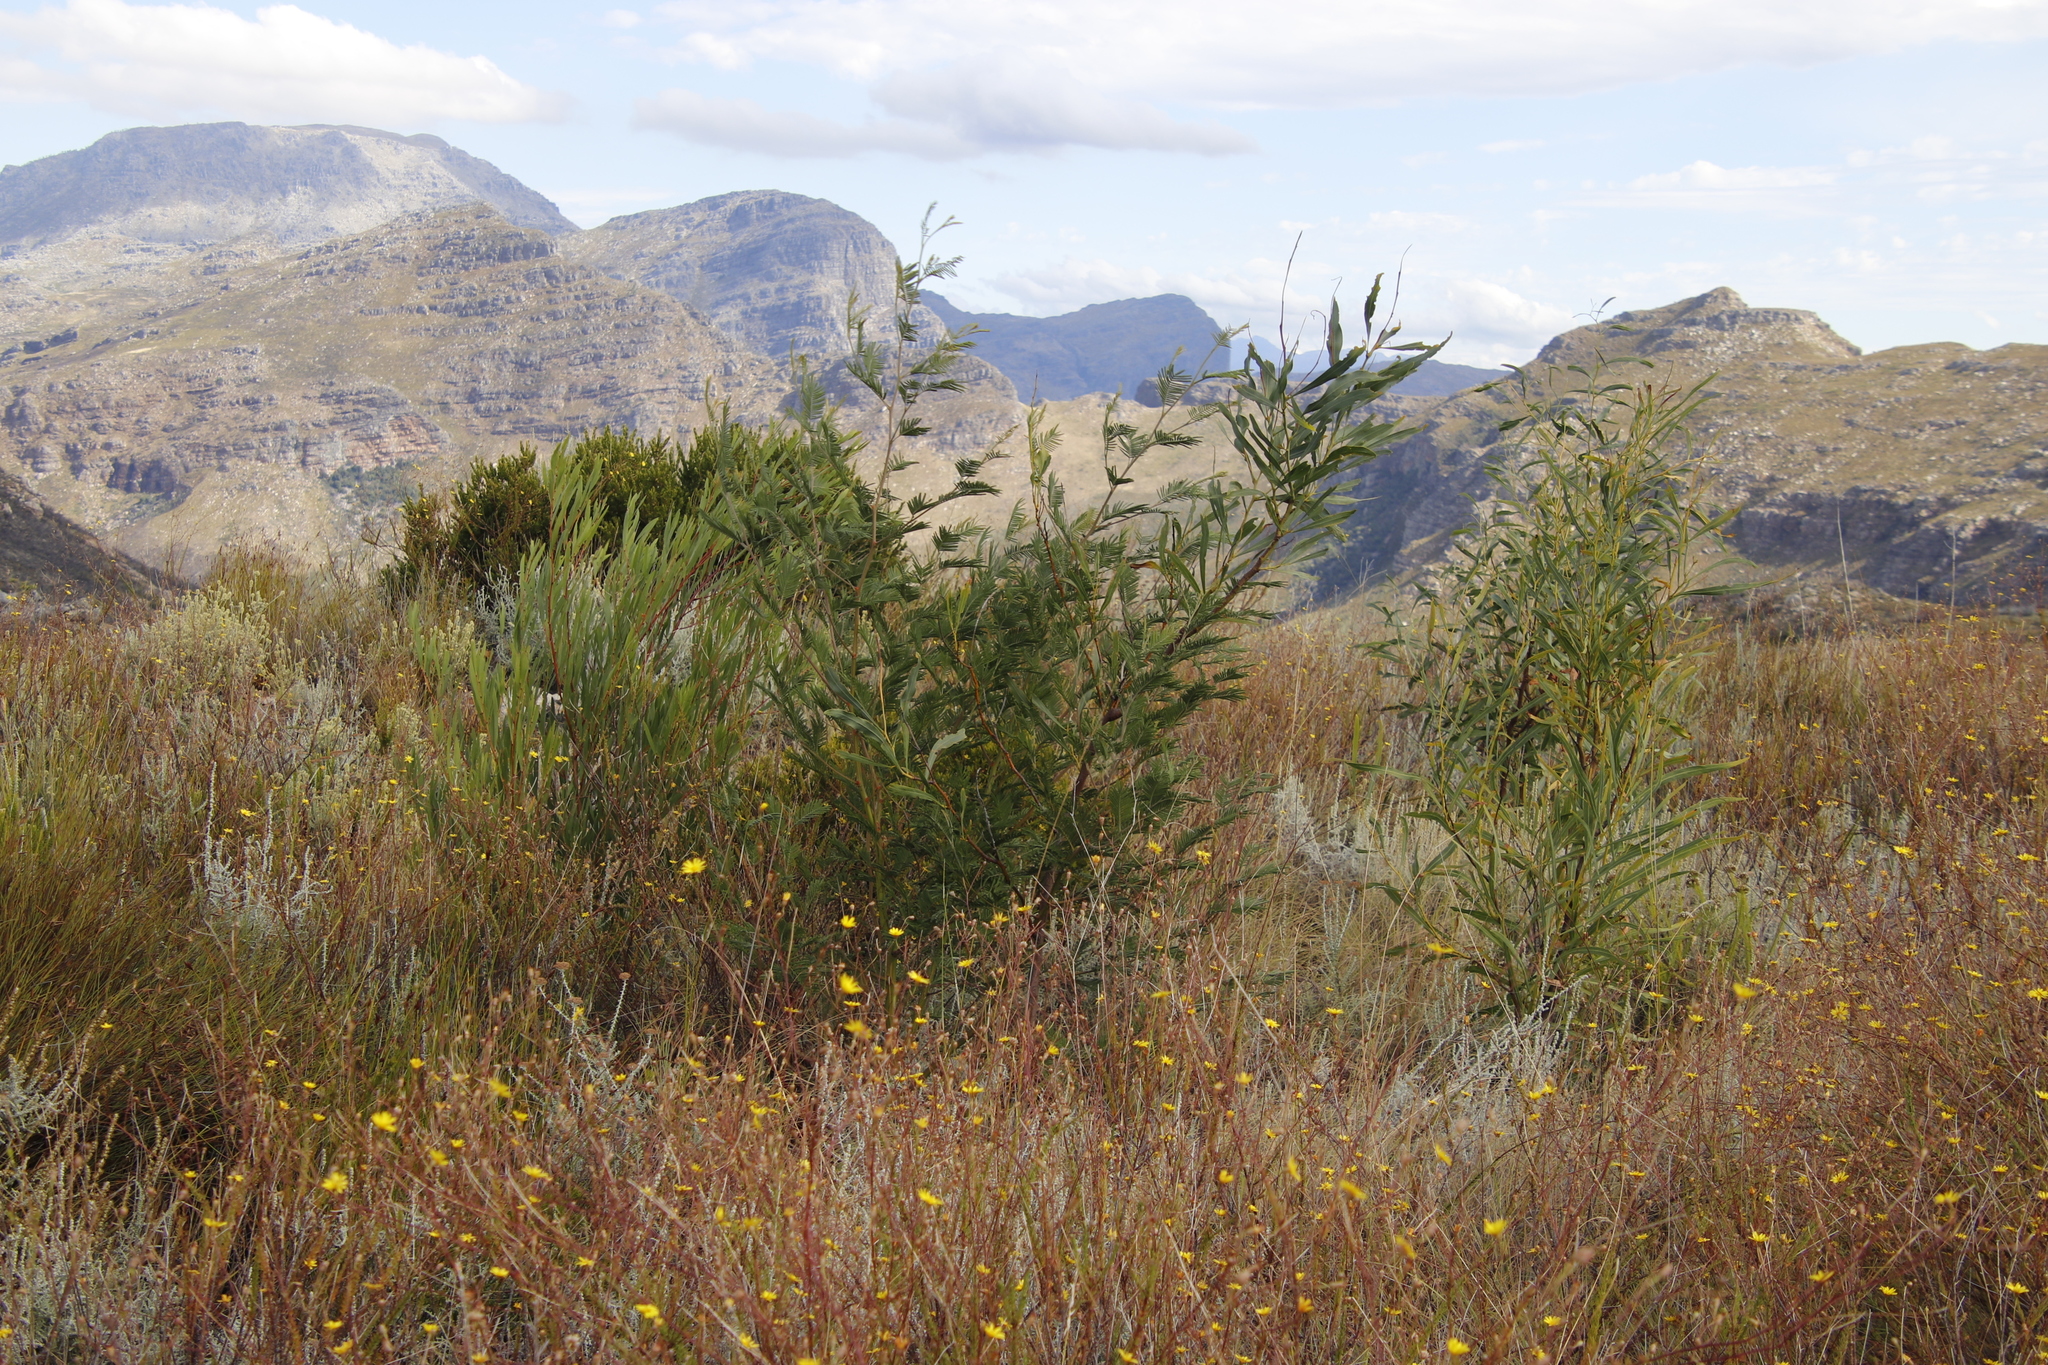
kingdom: Plantae
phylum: Tracheophyta
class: Magnoliopsida
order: Fabales
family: Fabaceae
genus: Acacia
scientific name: Acacia longifolia
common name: Sydney golden wattle
